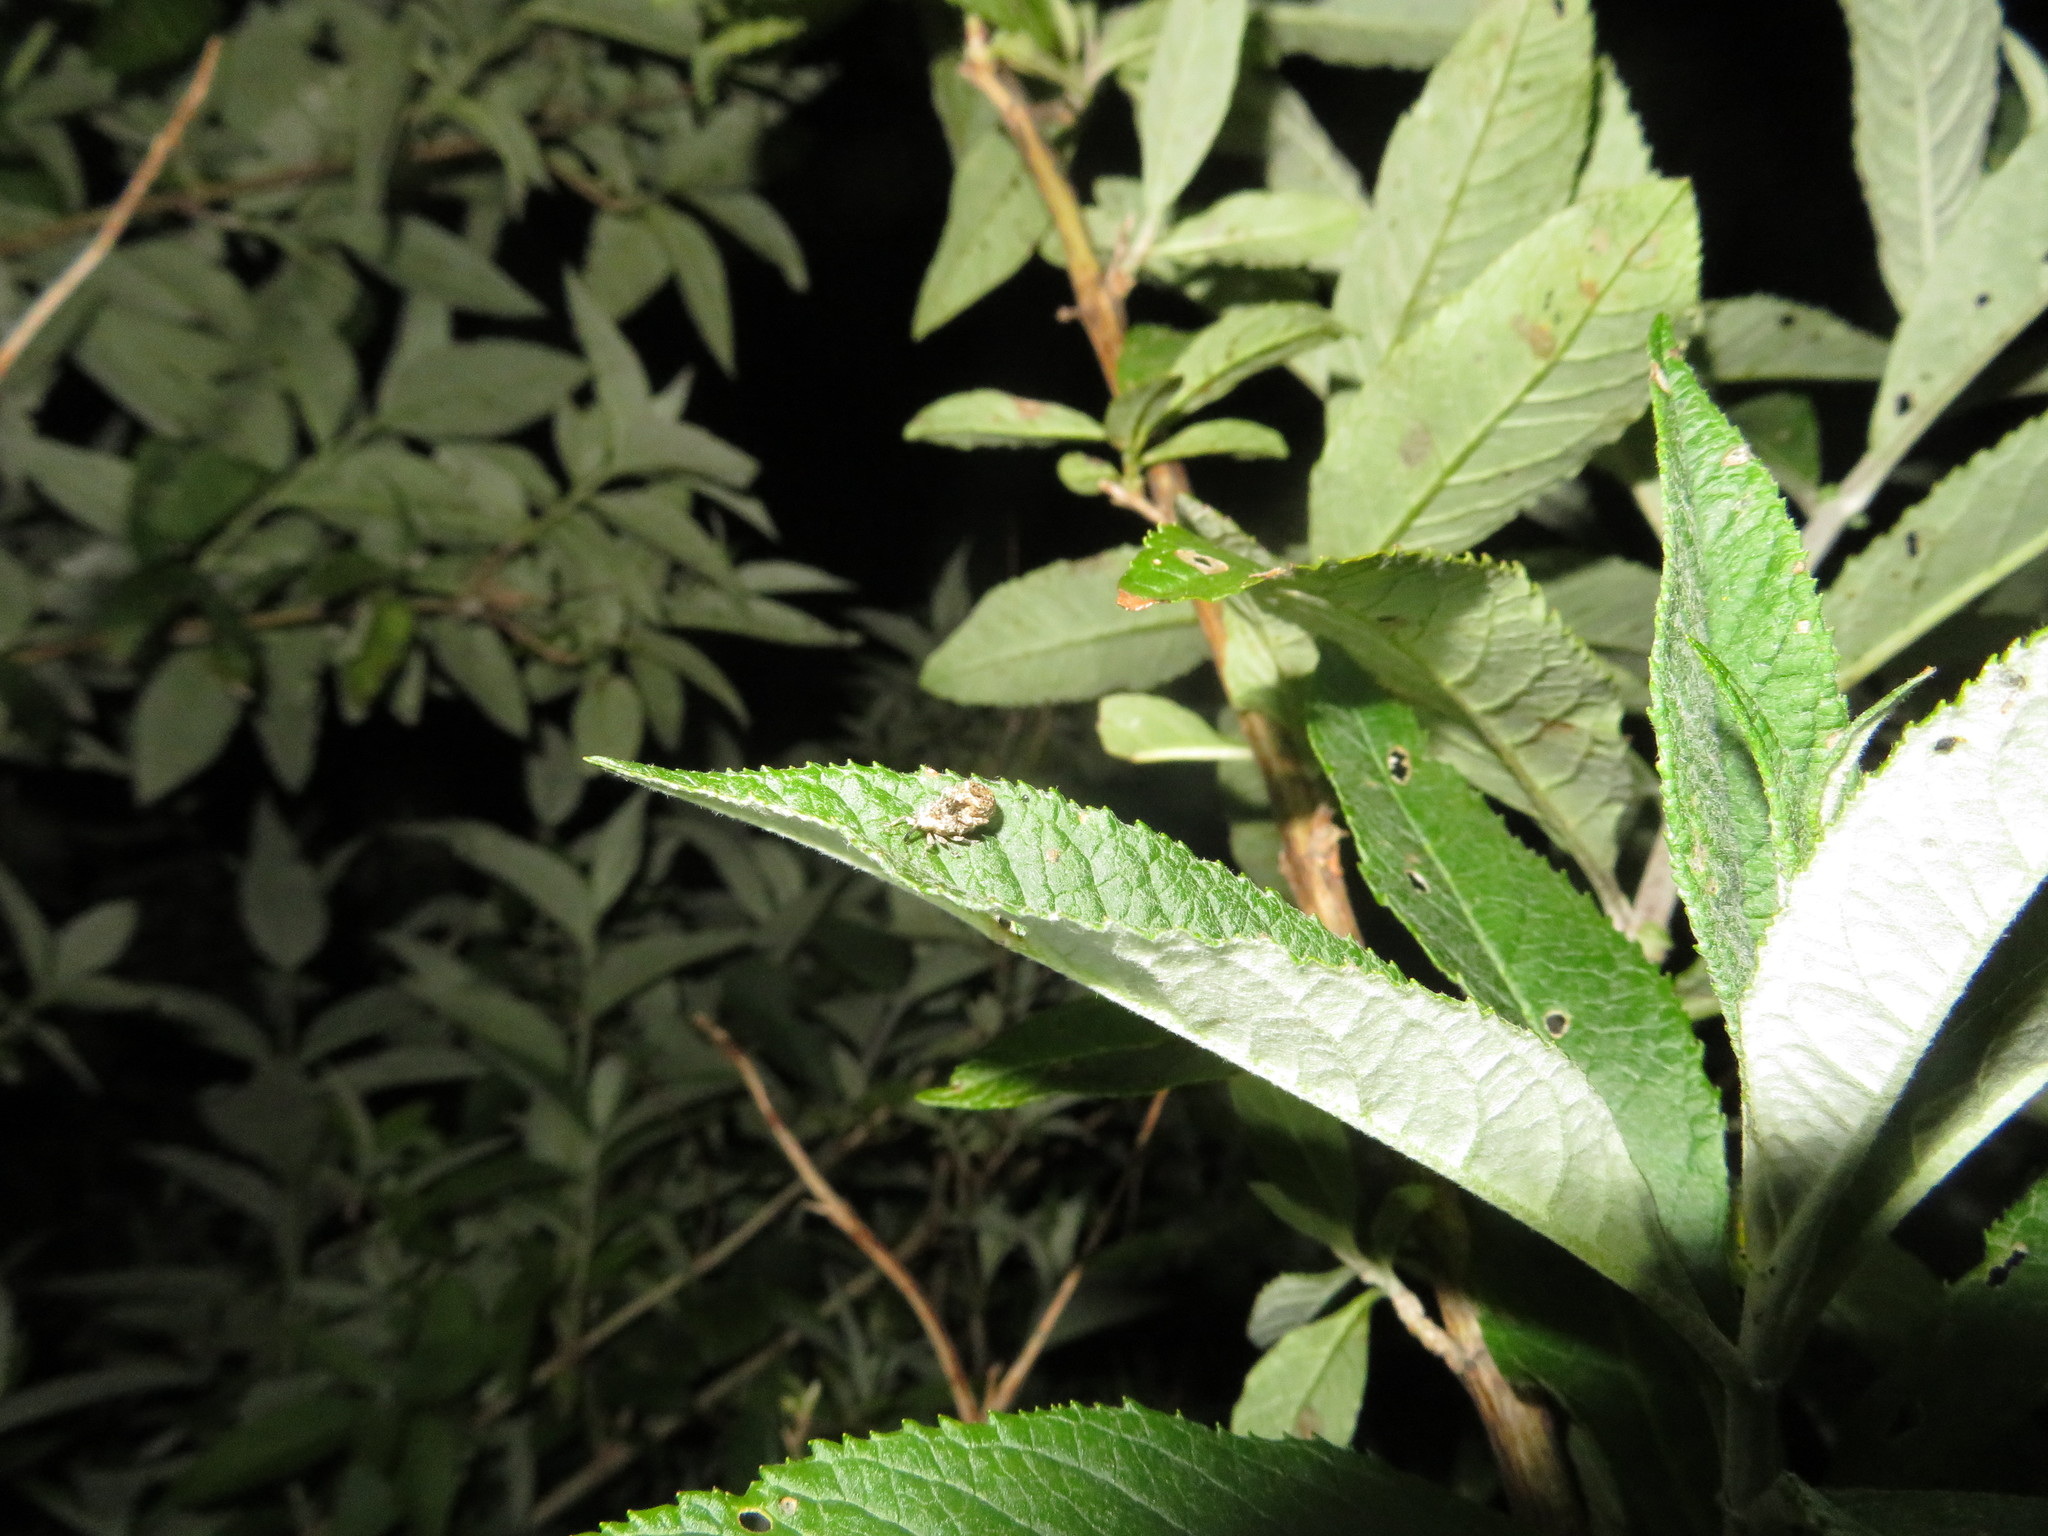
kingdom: Animalia
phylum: Arthropoda
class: Insecta
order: Coleoptera
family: Curculionidae
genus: Cleopus
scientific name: Cleopus japonicus
